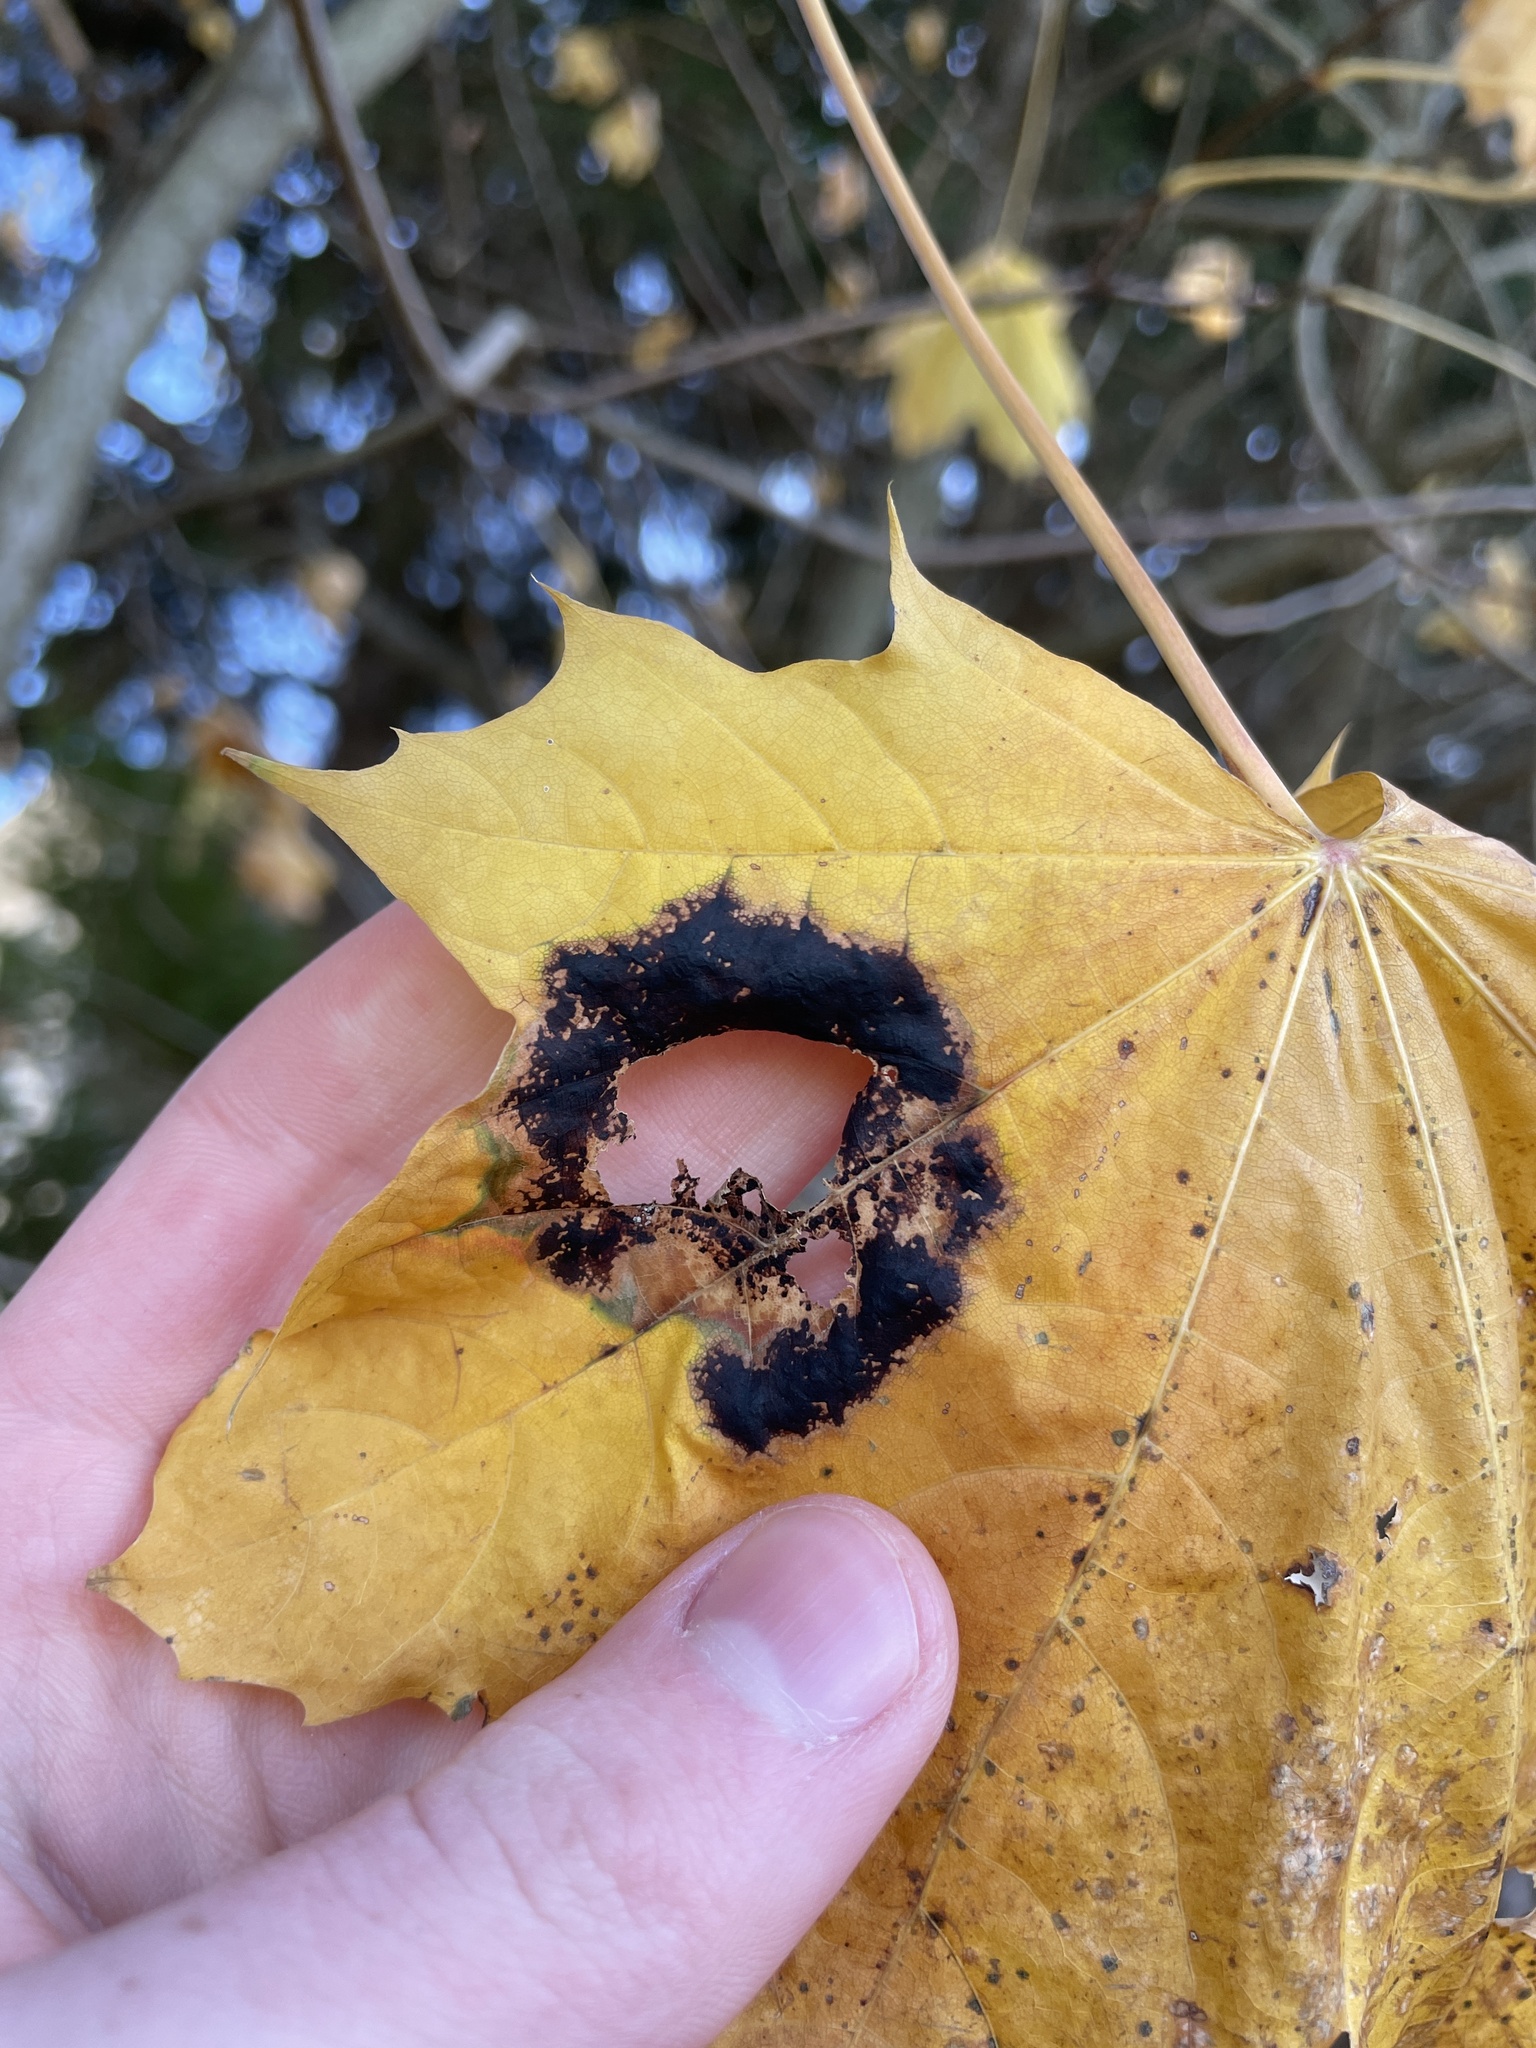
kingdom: Fungi
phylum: Ascomycota
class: Leotiomycetes
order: Rhytismatales
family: Rhytismataceae
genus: Rhytisma
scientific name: Rhytisma acerinum
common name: European tar spot
